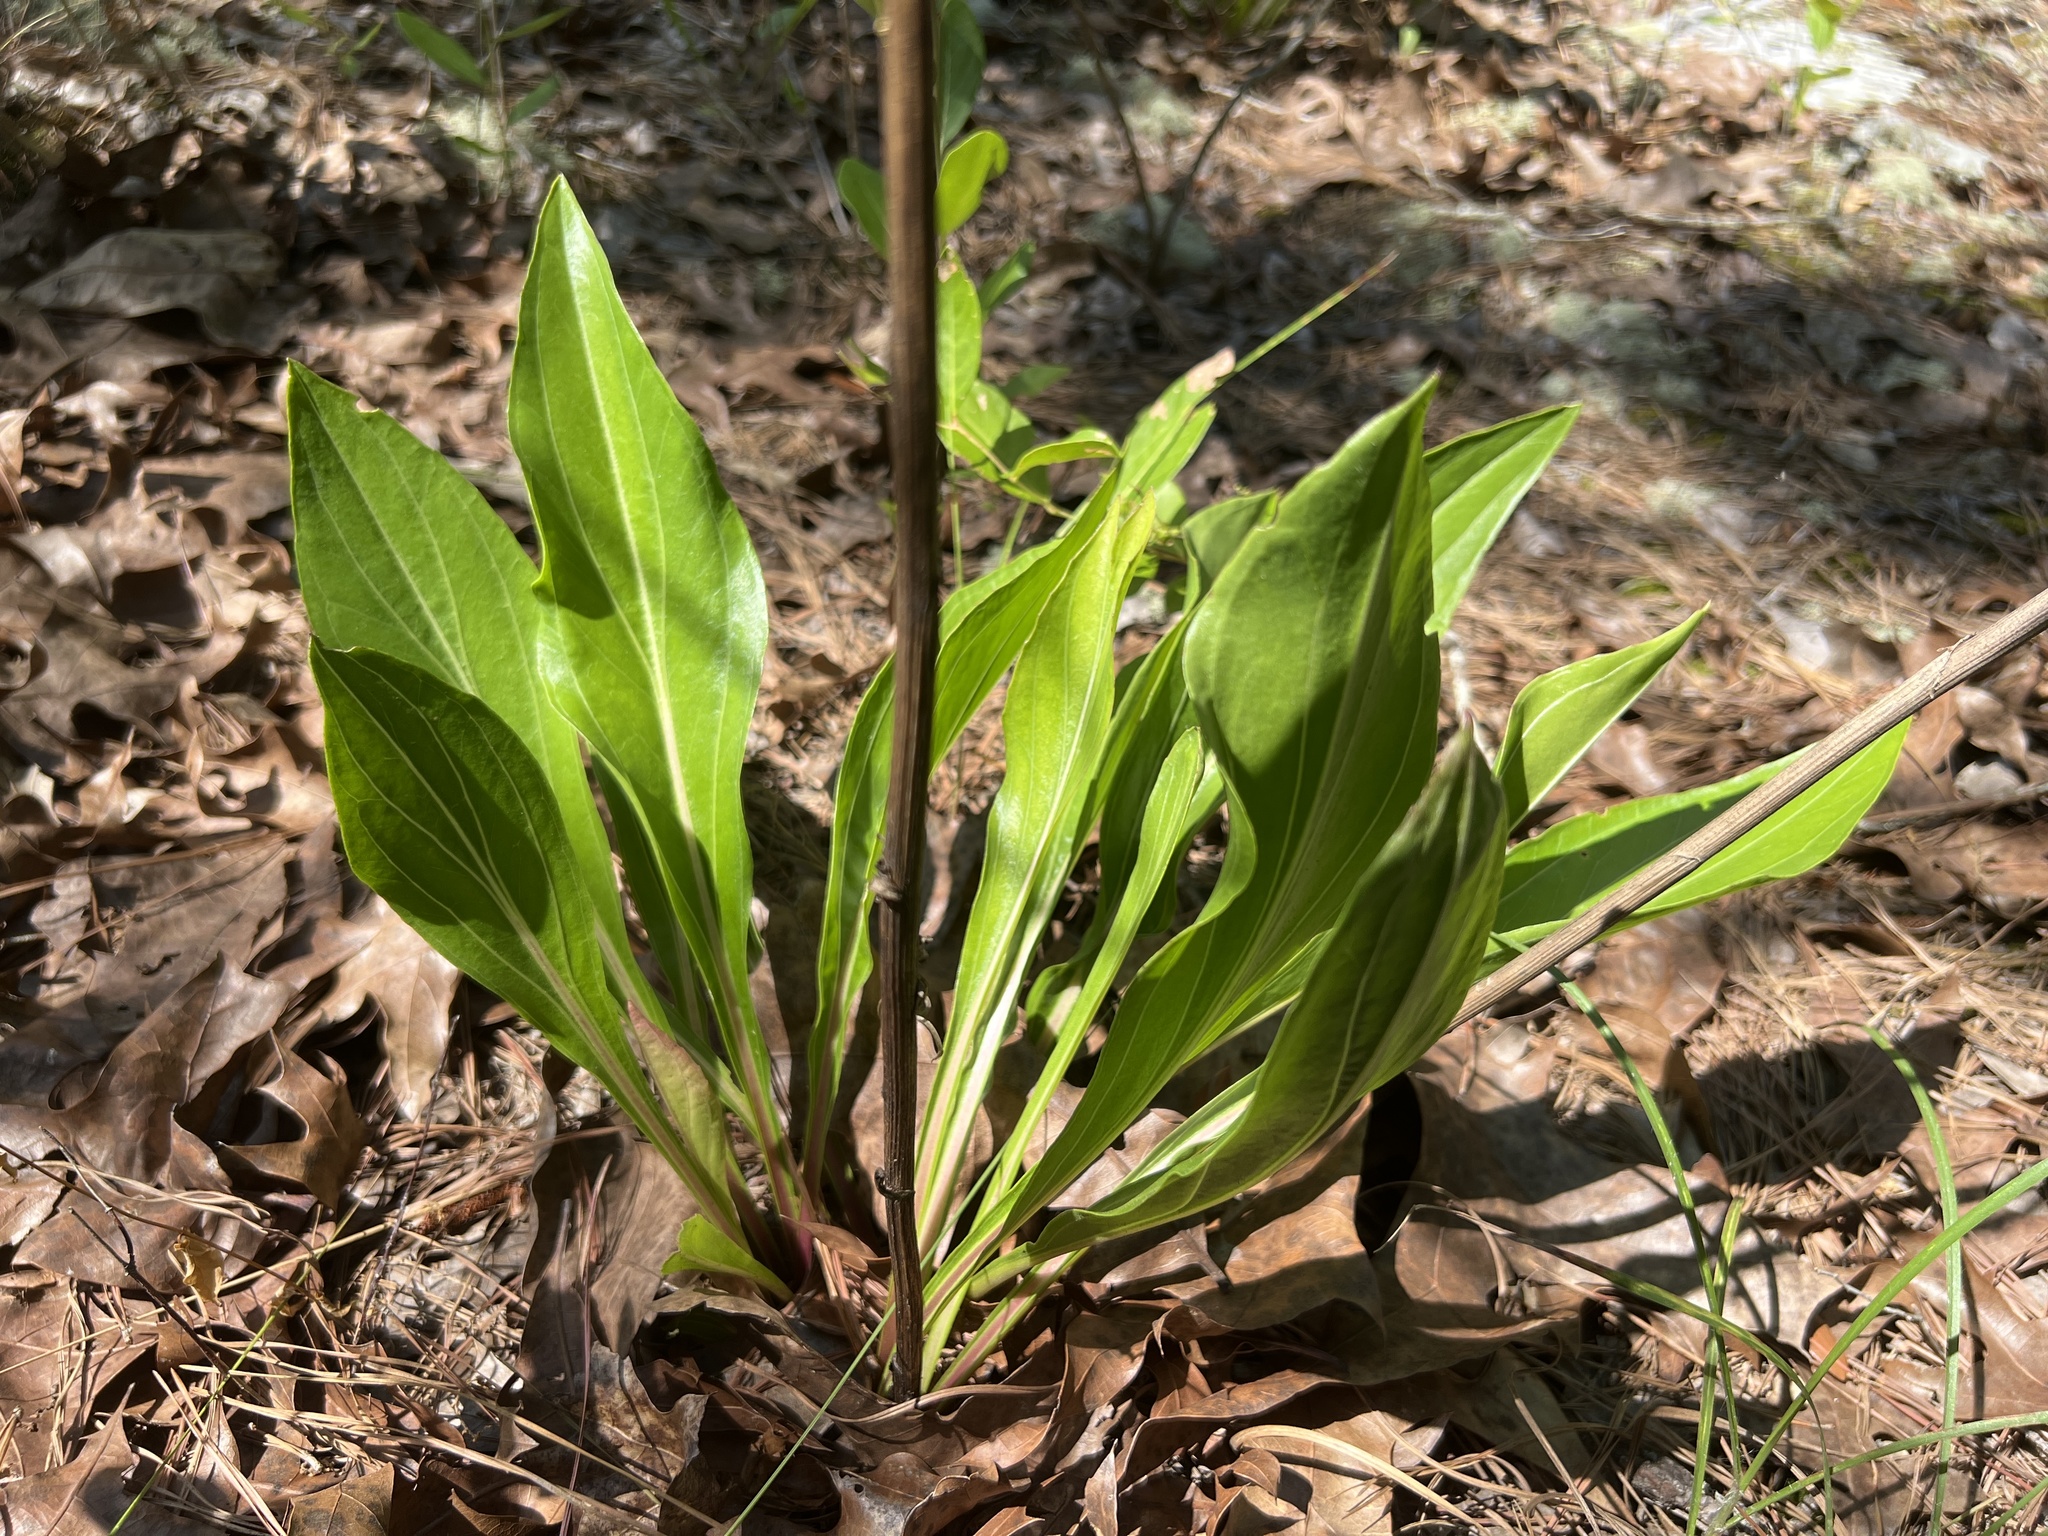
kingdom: Plantae
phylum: Tracheophyta
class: Magnoliopsida
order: Asterales
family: Asteraceae
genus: Carphephorus
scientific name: Carphephorus odoratissimus
